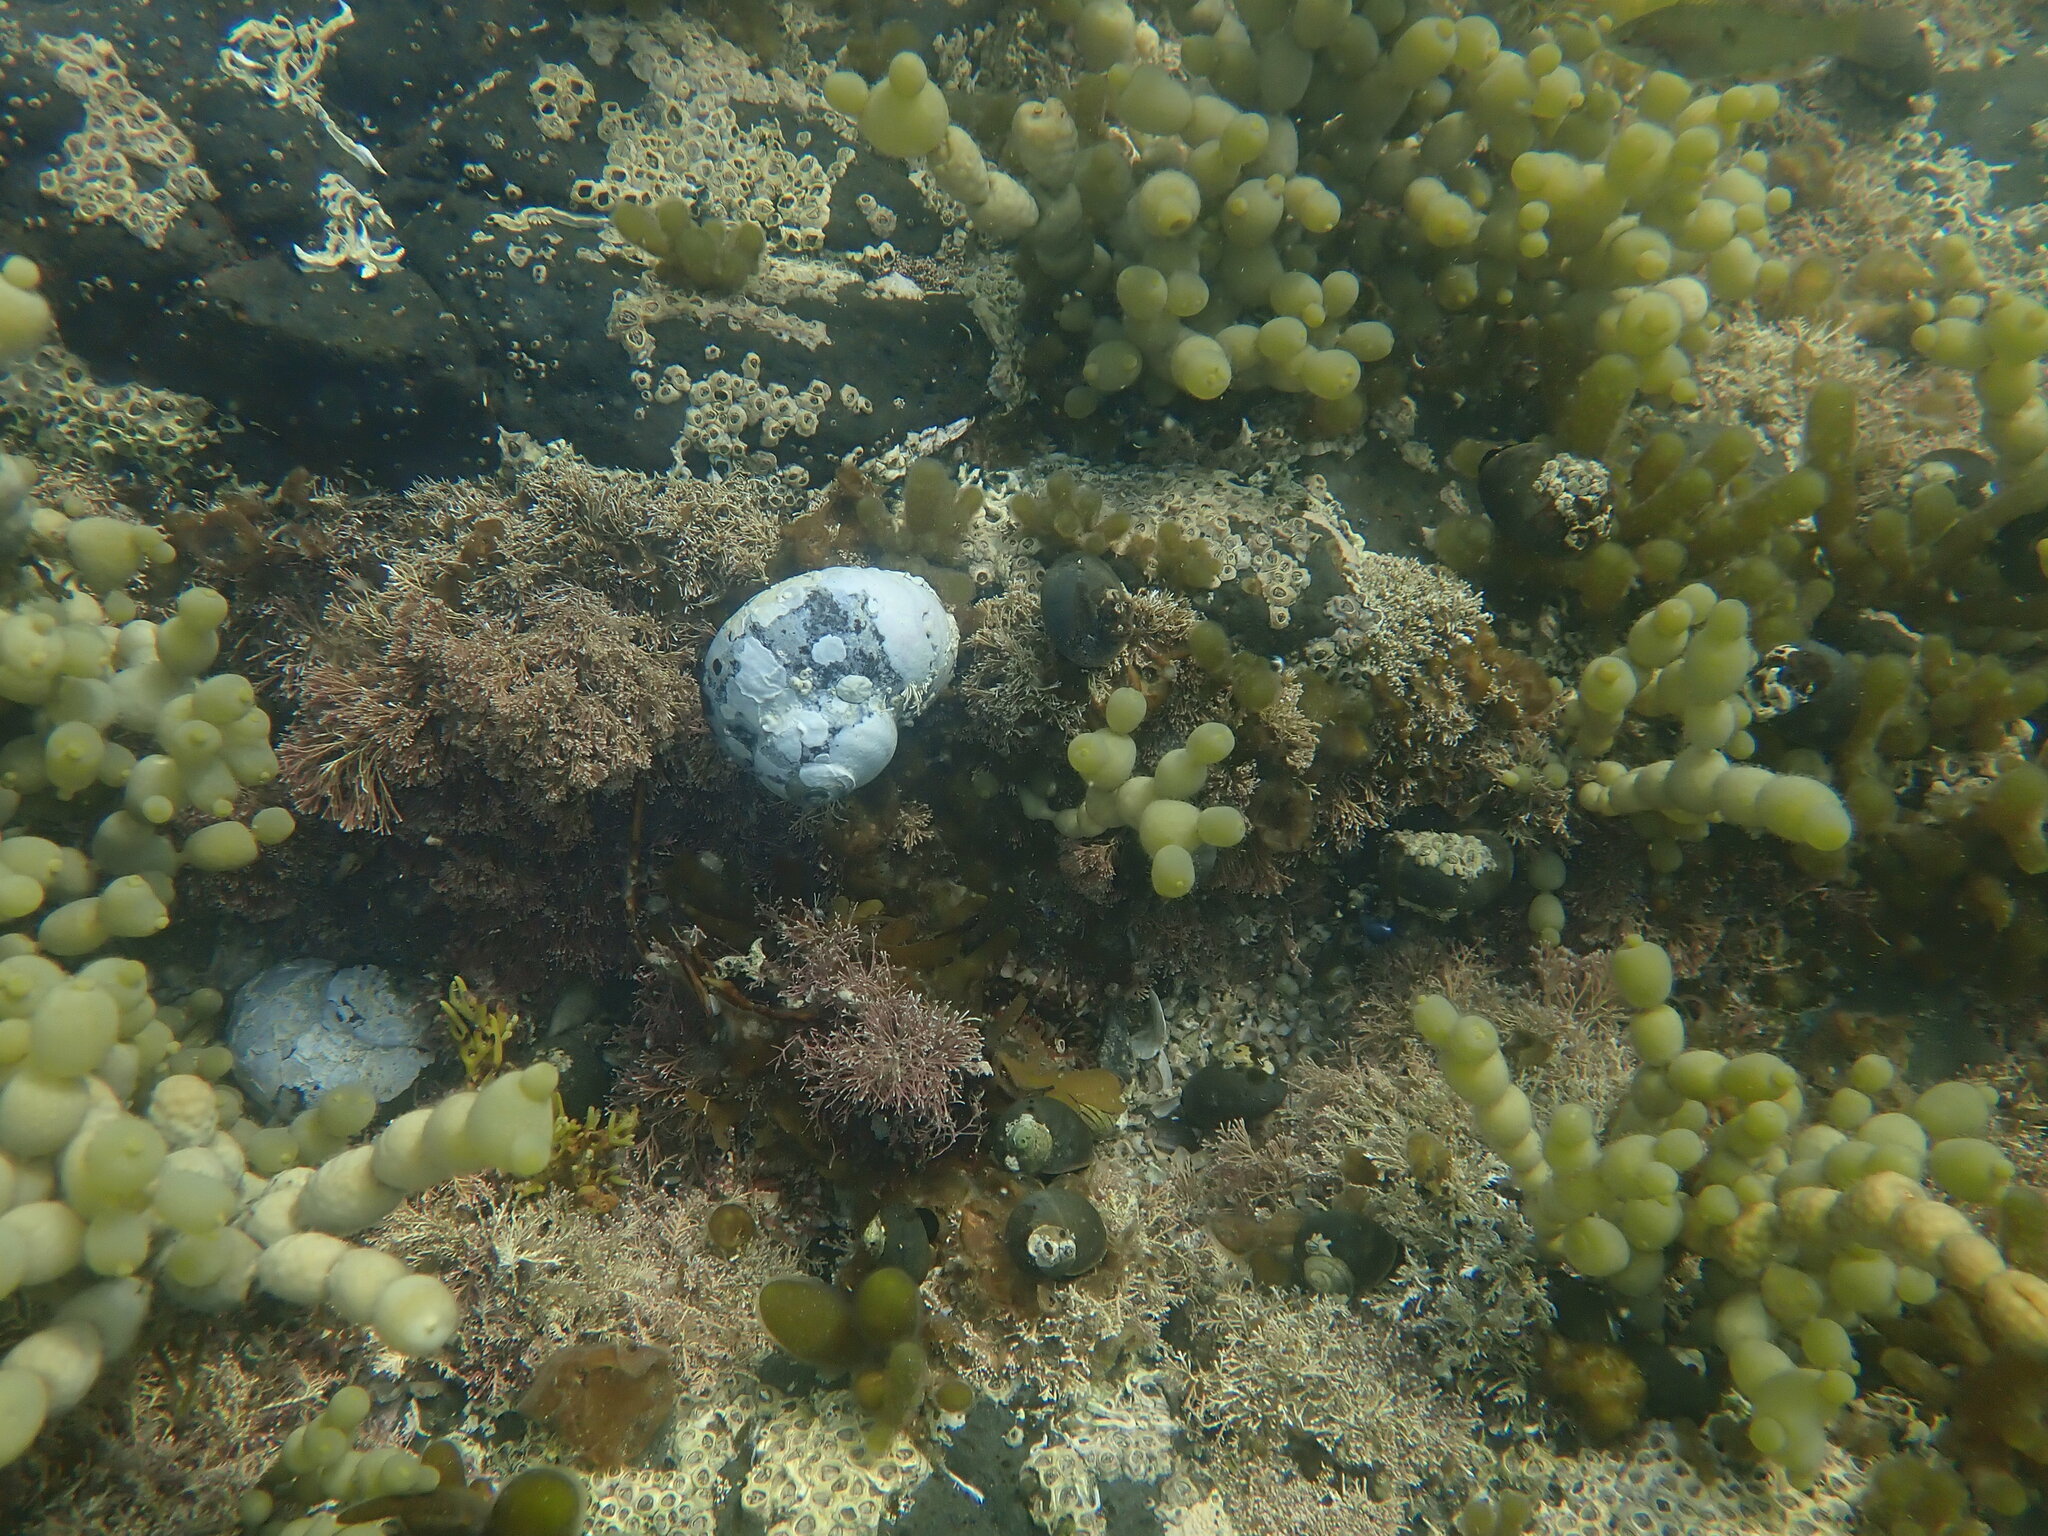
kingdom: Animalia
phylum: Mollusca
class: Gastropoda
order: Trochida
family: Turbinidae
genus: Lunella
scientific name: Lunella smaragda
